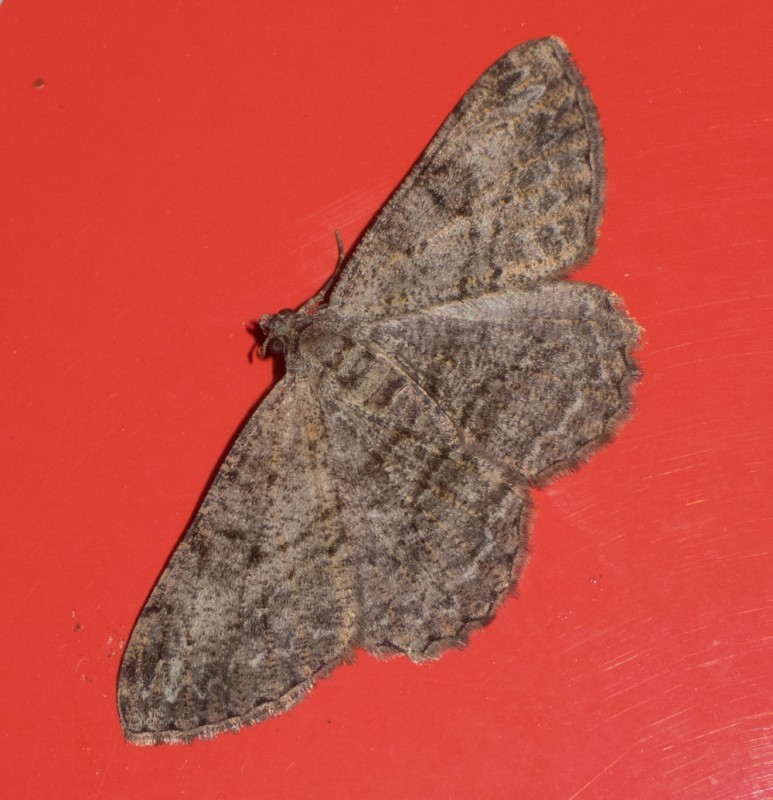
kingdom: Animalia
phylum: Arthropoda
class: Insecta
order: Lepidoptera
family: Geometridae
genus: Peribatodes
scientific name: Peribatodes rhomboidaria
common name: Willow beauty
